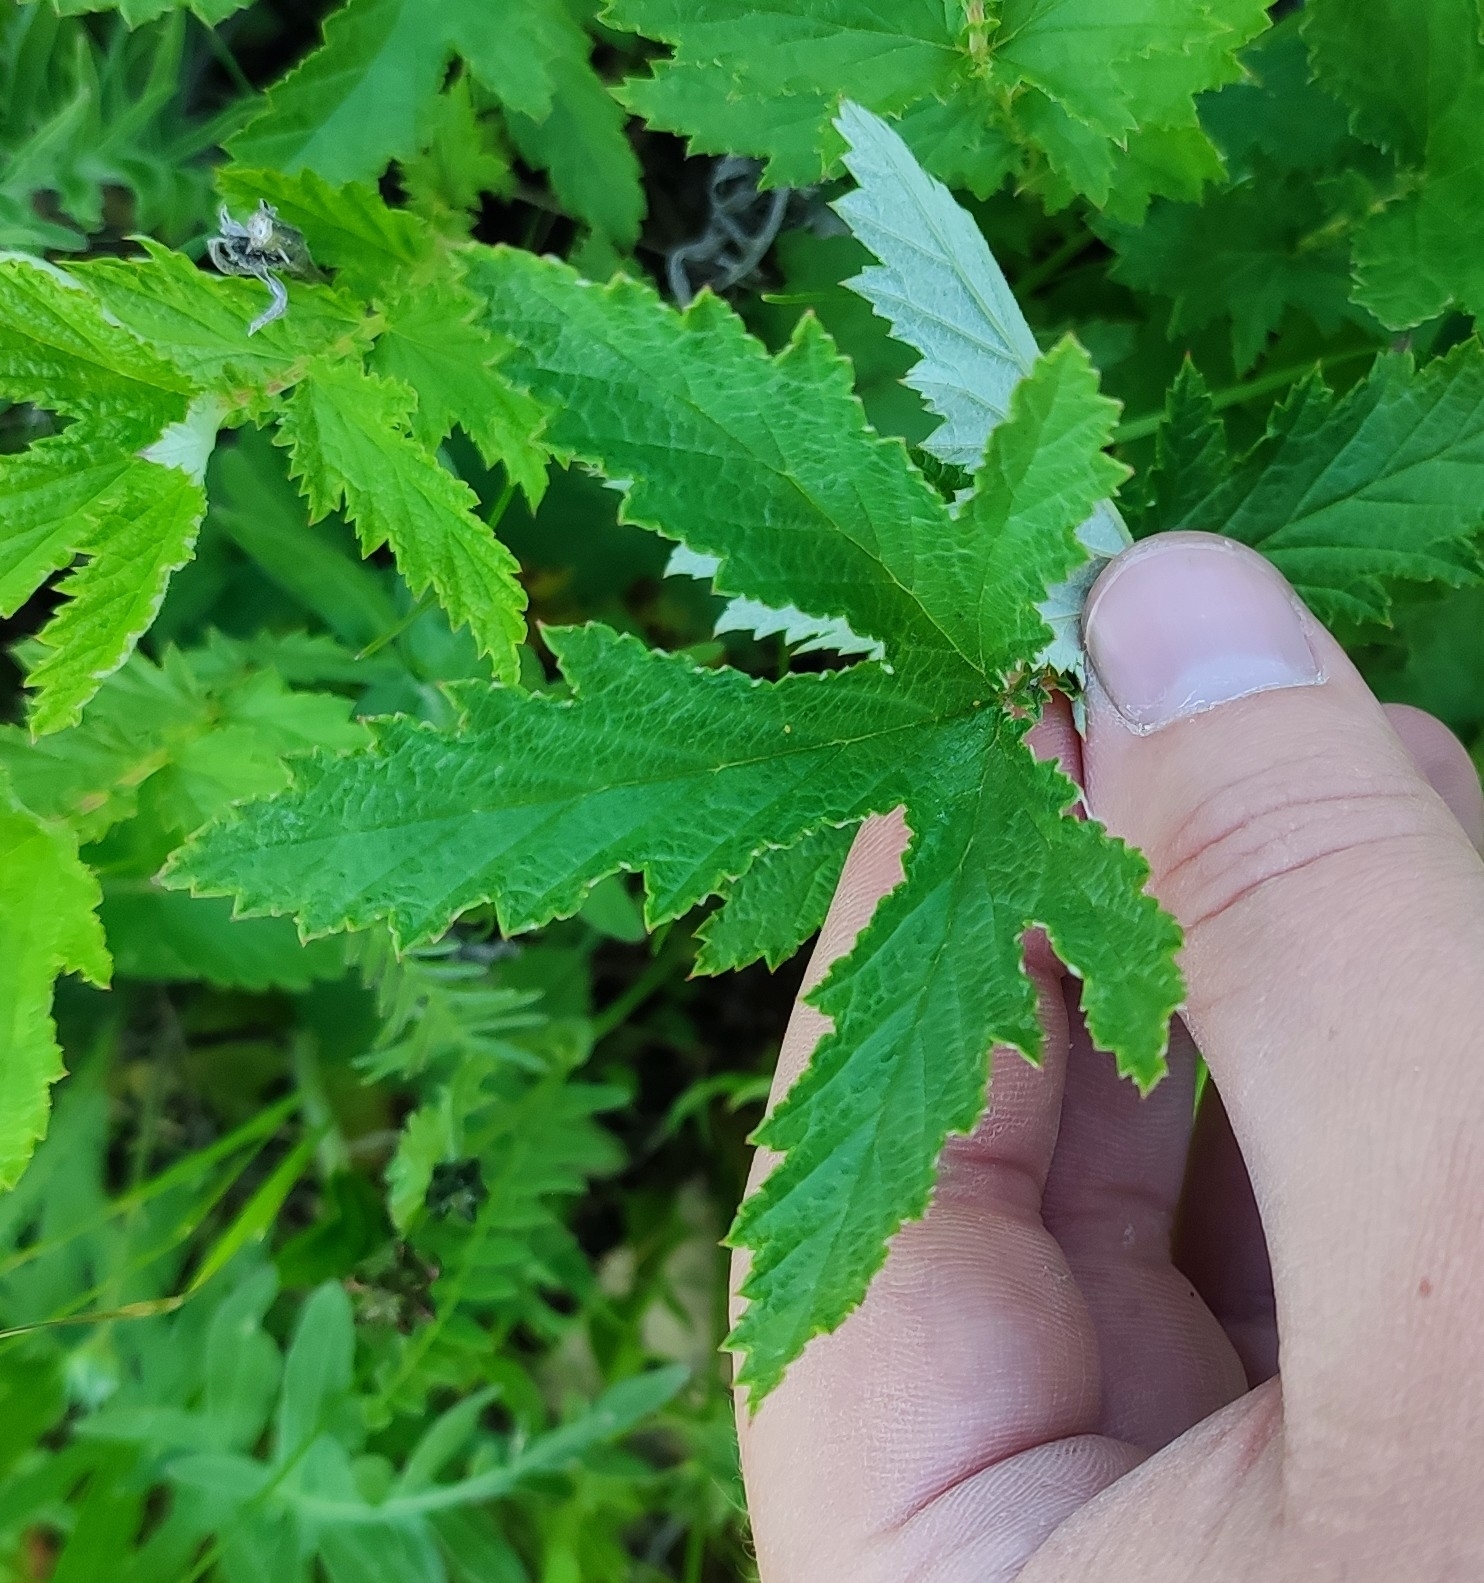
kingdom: Plantae
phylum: Tracheophyta
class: Magnoliopsida
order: Rosales
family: Rosaceae
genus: Filipendula
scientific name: Filipendula ulmaria
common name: Meadowsweet
